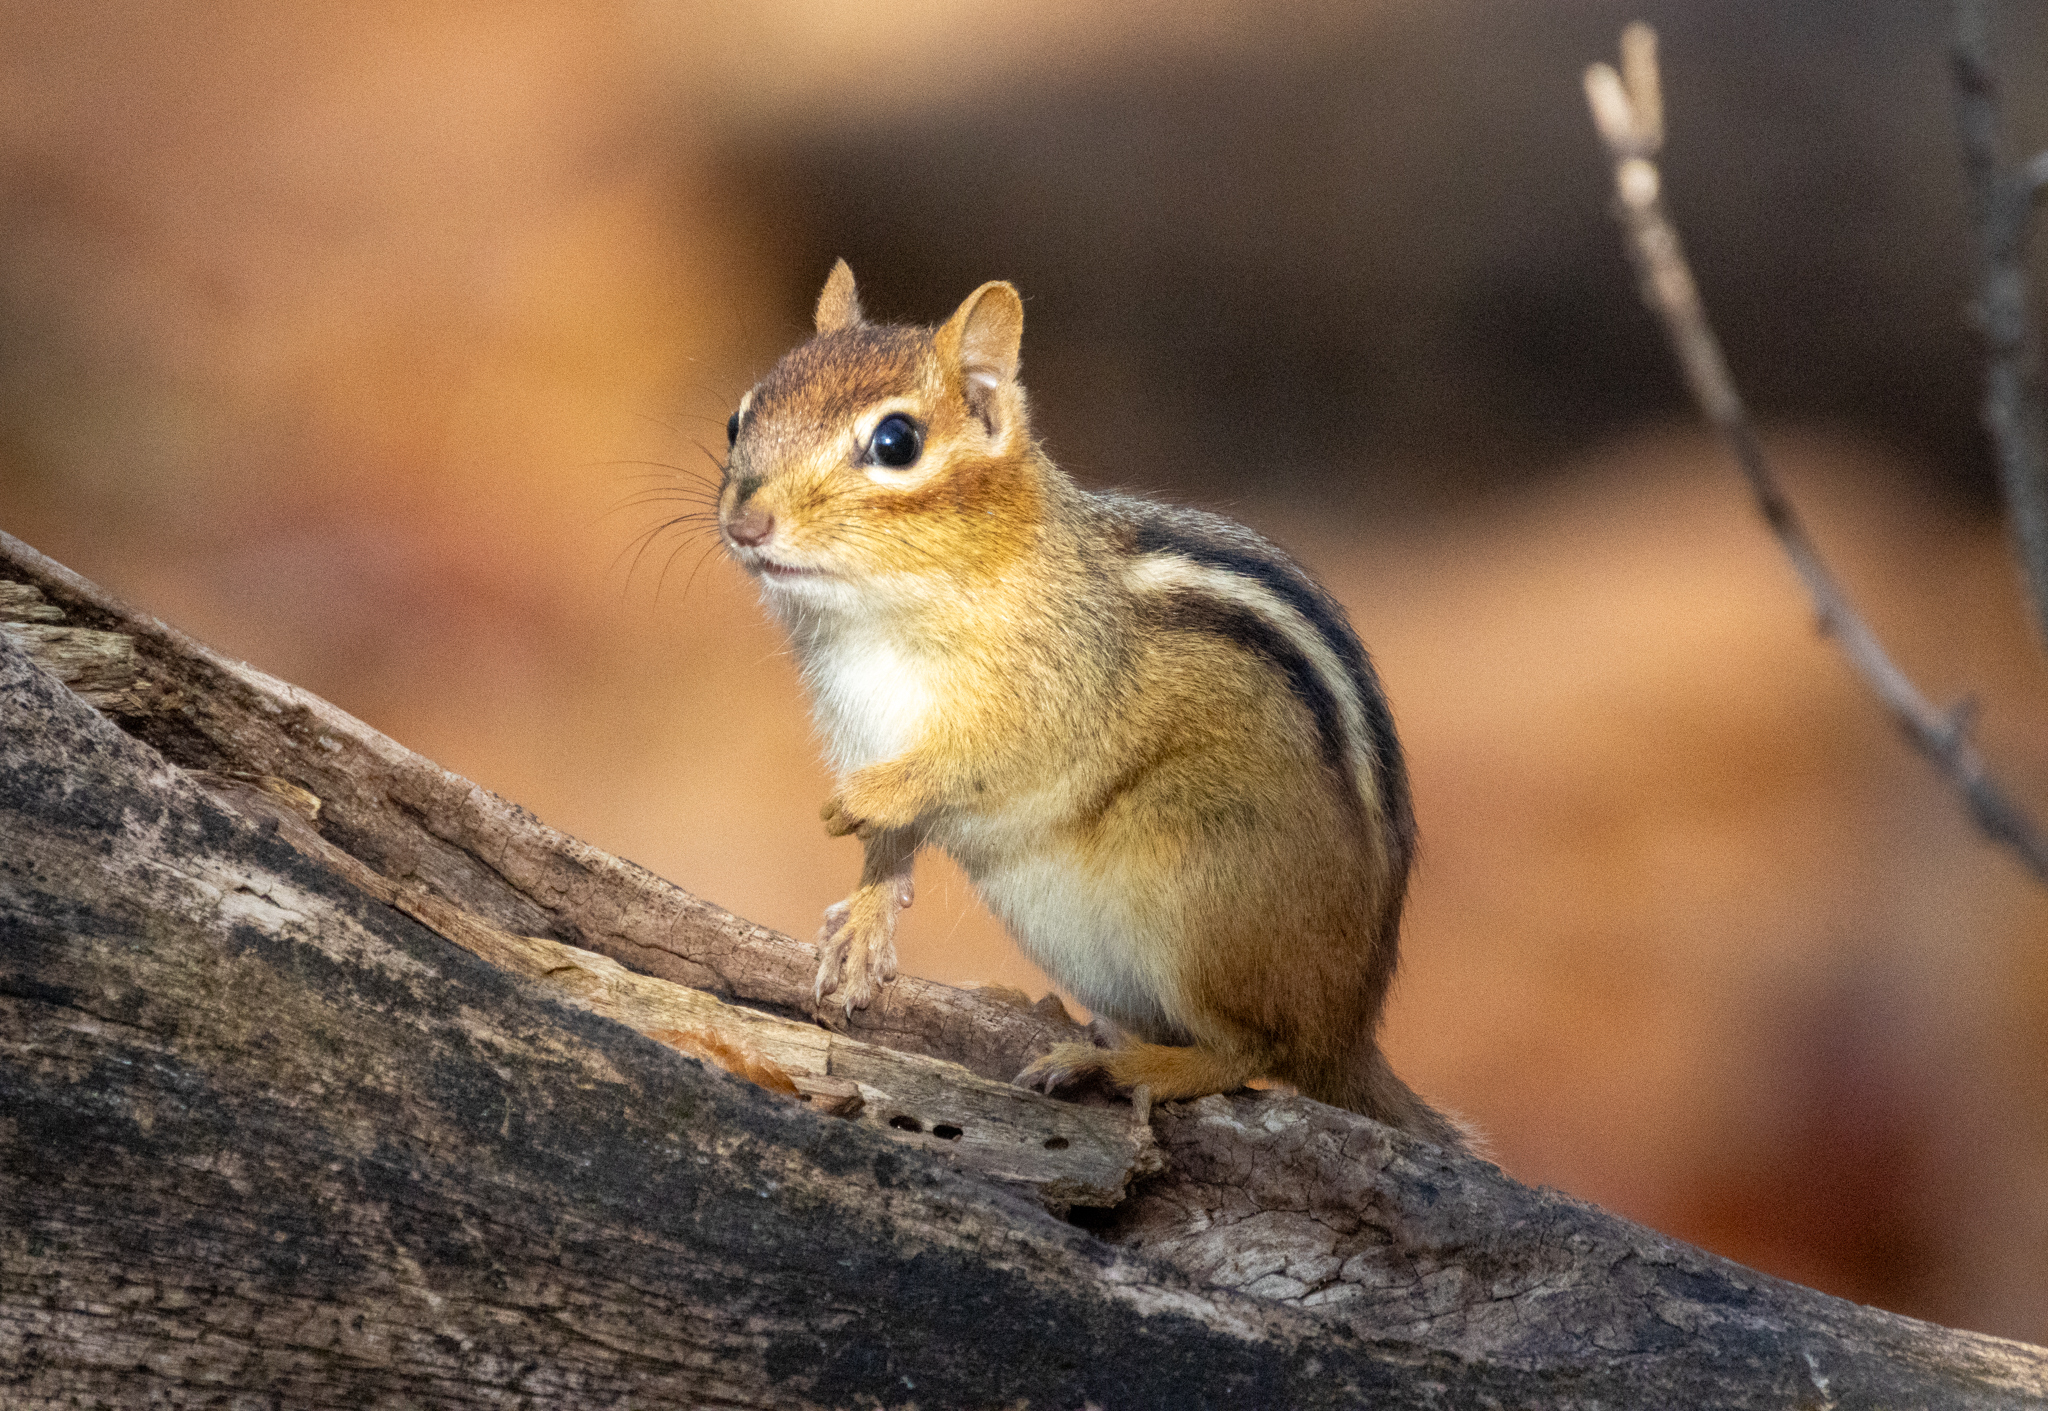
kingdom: Animalia
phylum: Chordata
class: Mammalia
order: Rodentia
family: Sciuridae
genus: Tamias
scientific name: Tamias striatus
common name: Eastern chipmunk
